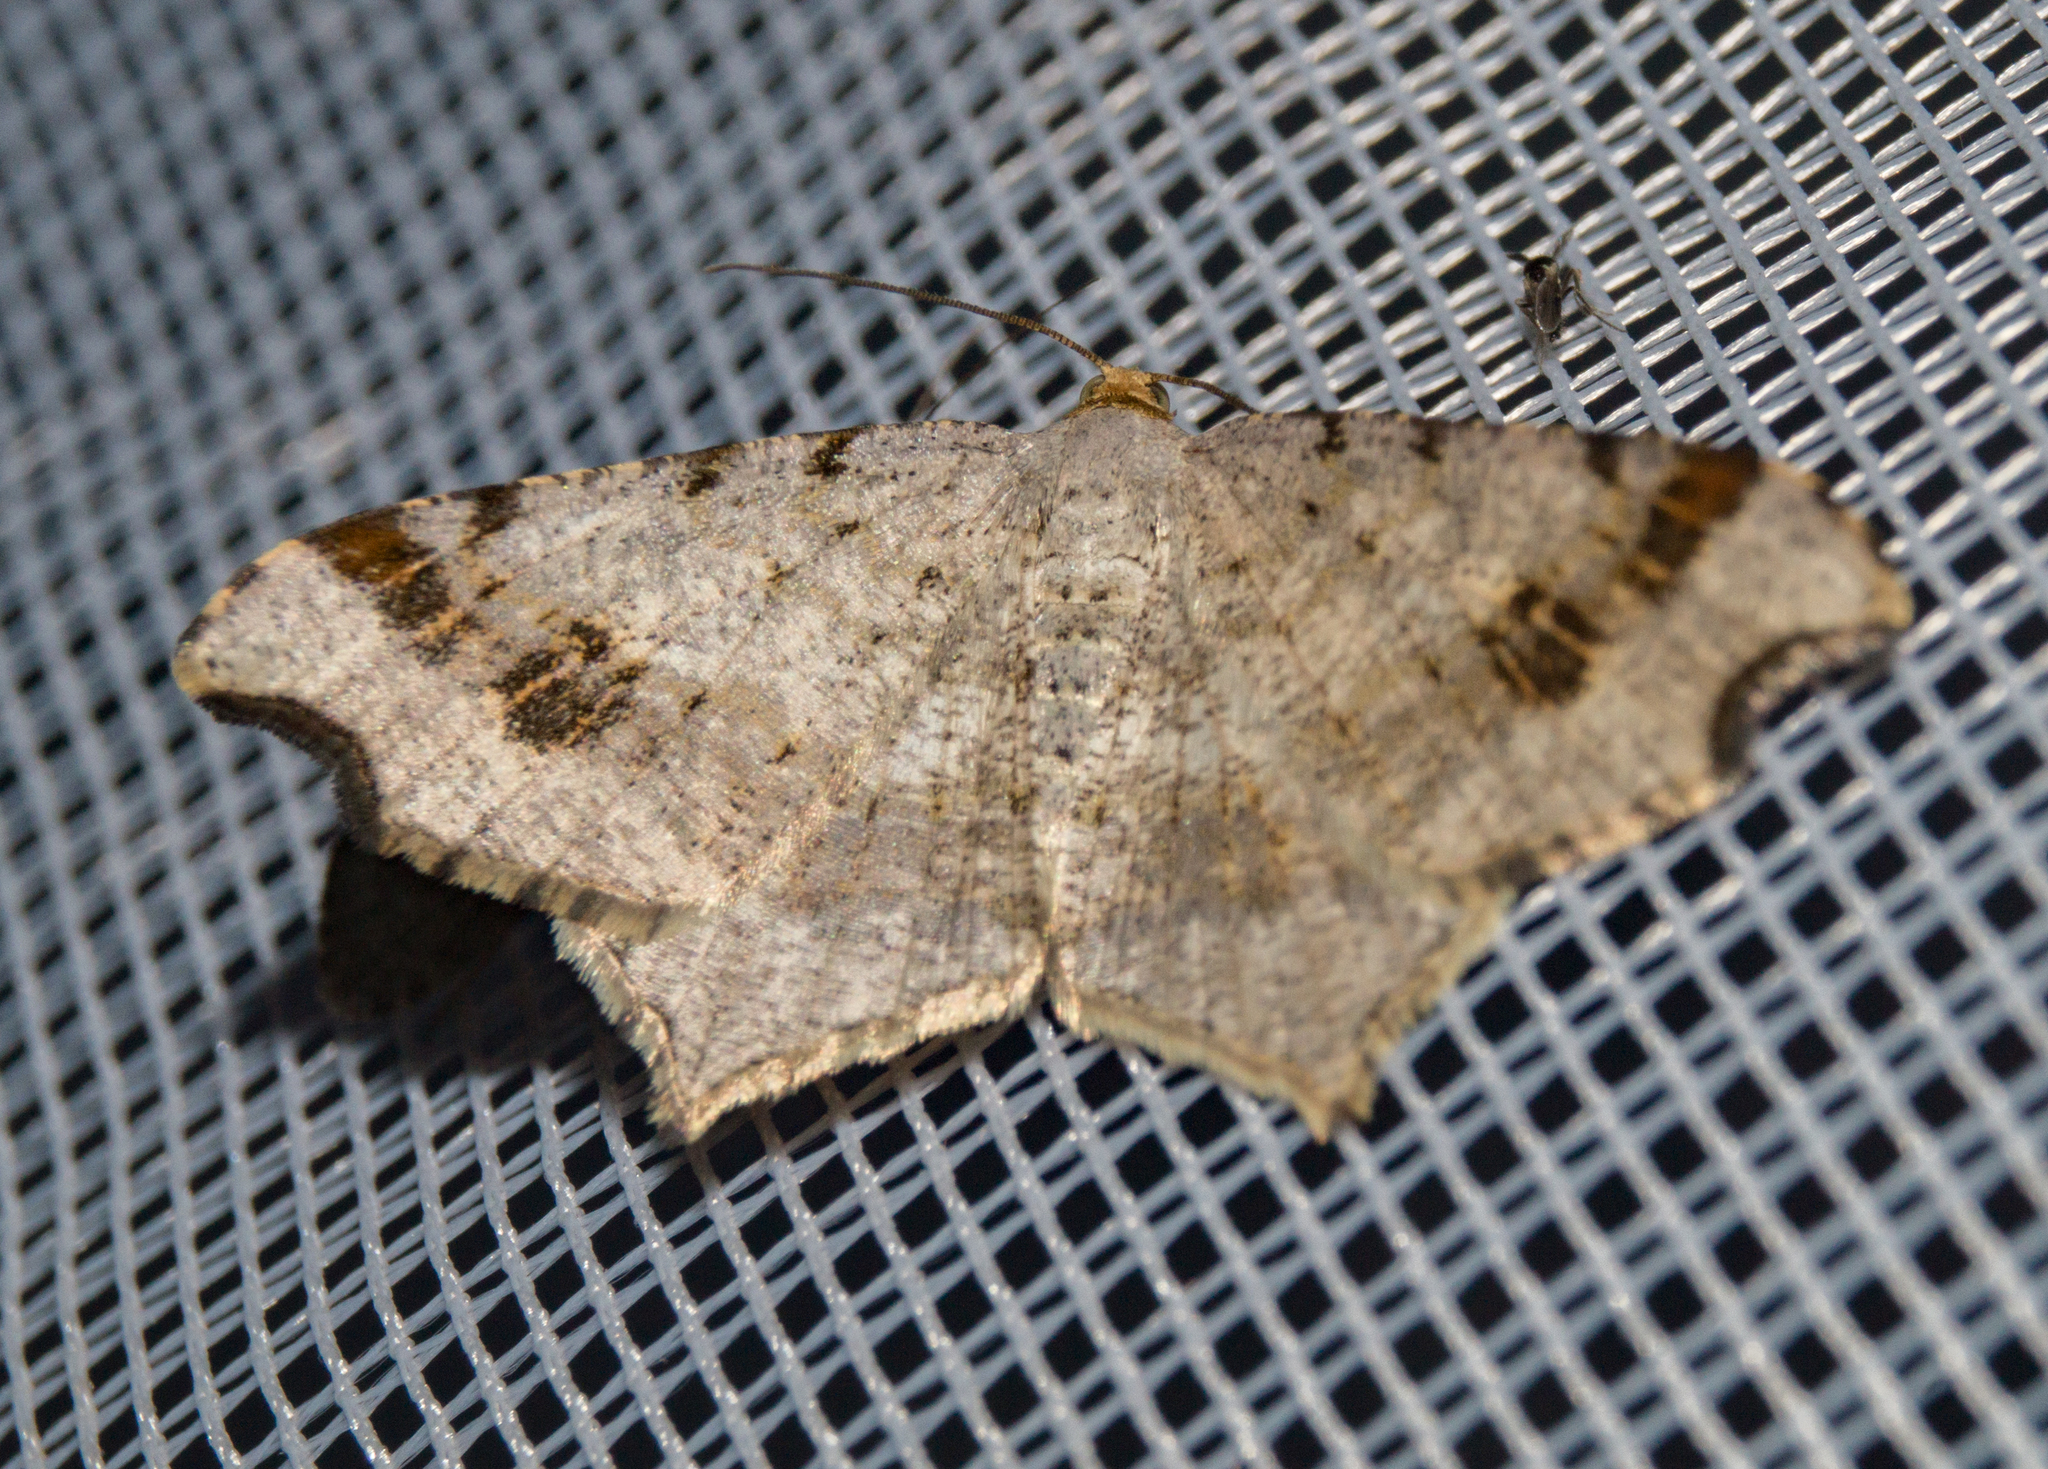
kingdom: Animalia
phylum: Arthropoda
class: Insecta
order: Lepidoptera
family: Geometridae
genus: Macaria
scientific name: Macaria alternata
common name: Sharp-angled peacock
